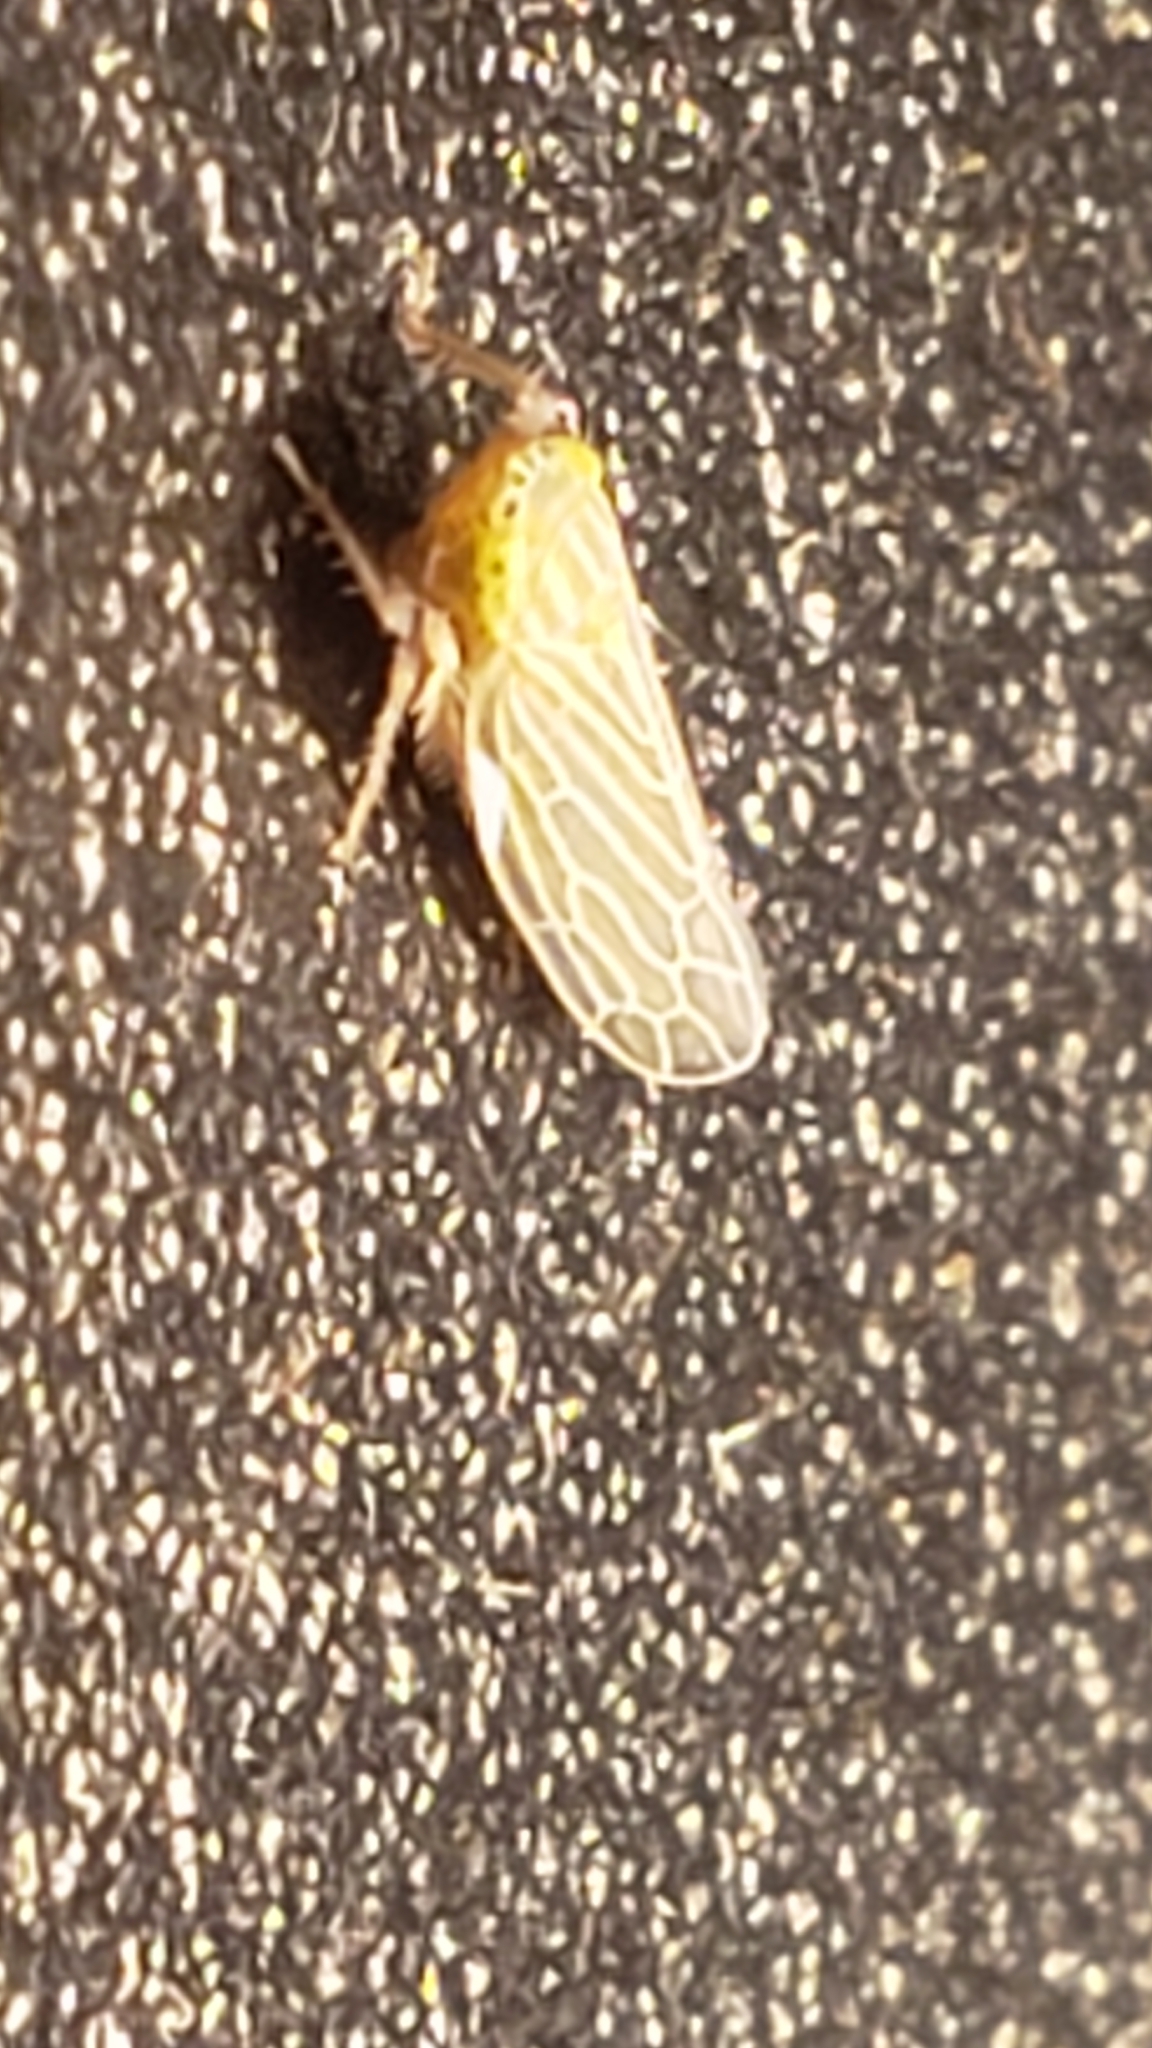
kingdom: Animalia
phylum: Arthropoda
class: Insecta
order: Hemiptera
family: Cicadellidae
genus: Graminella
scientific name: Graminella fitchii
